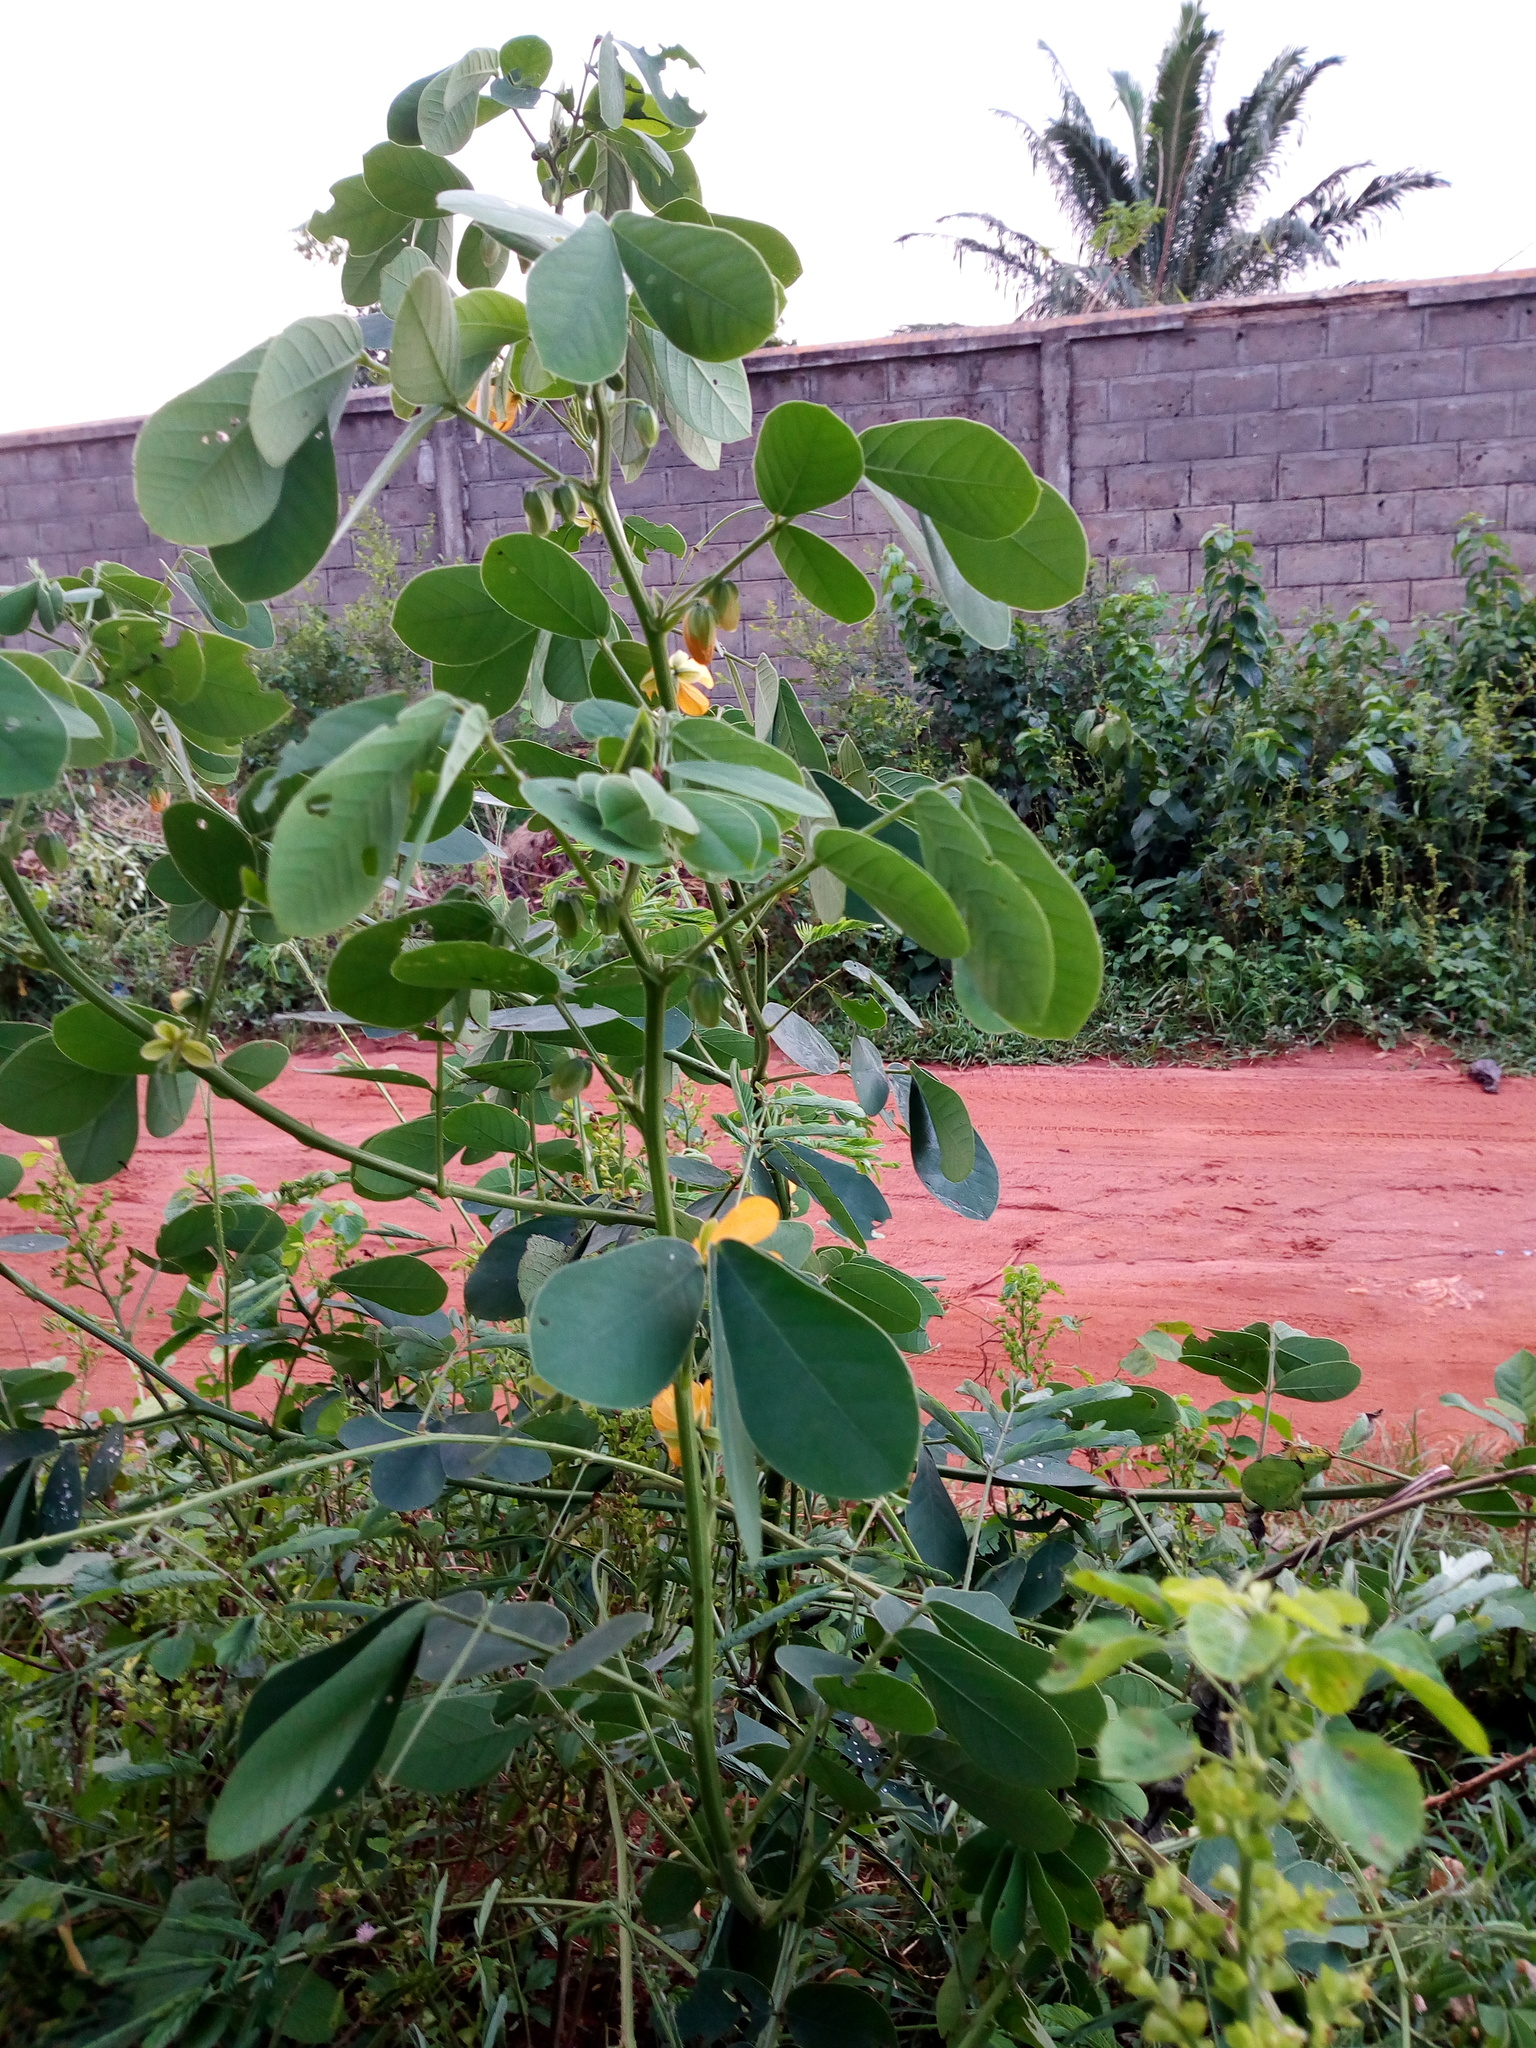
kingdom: Plantae
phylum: Tracheophyta
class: Magnoliopsida
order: Fabales
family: Fabaceae
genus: Senna
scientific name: Senna obtusifolia
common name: Java-bean
